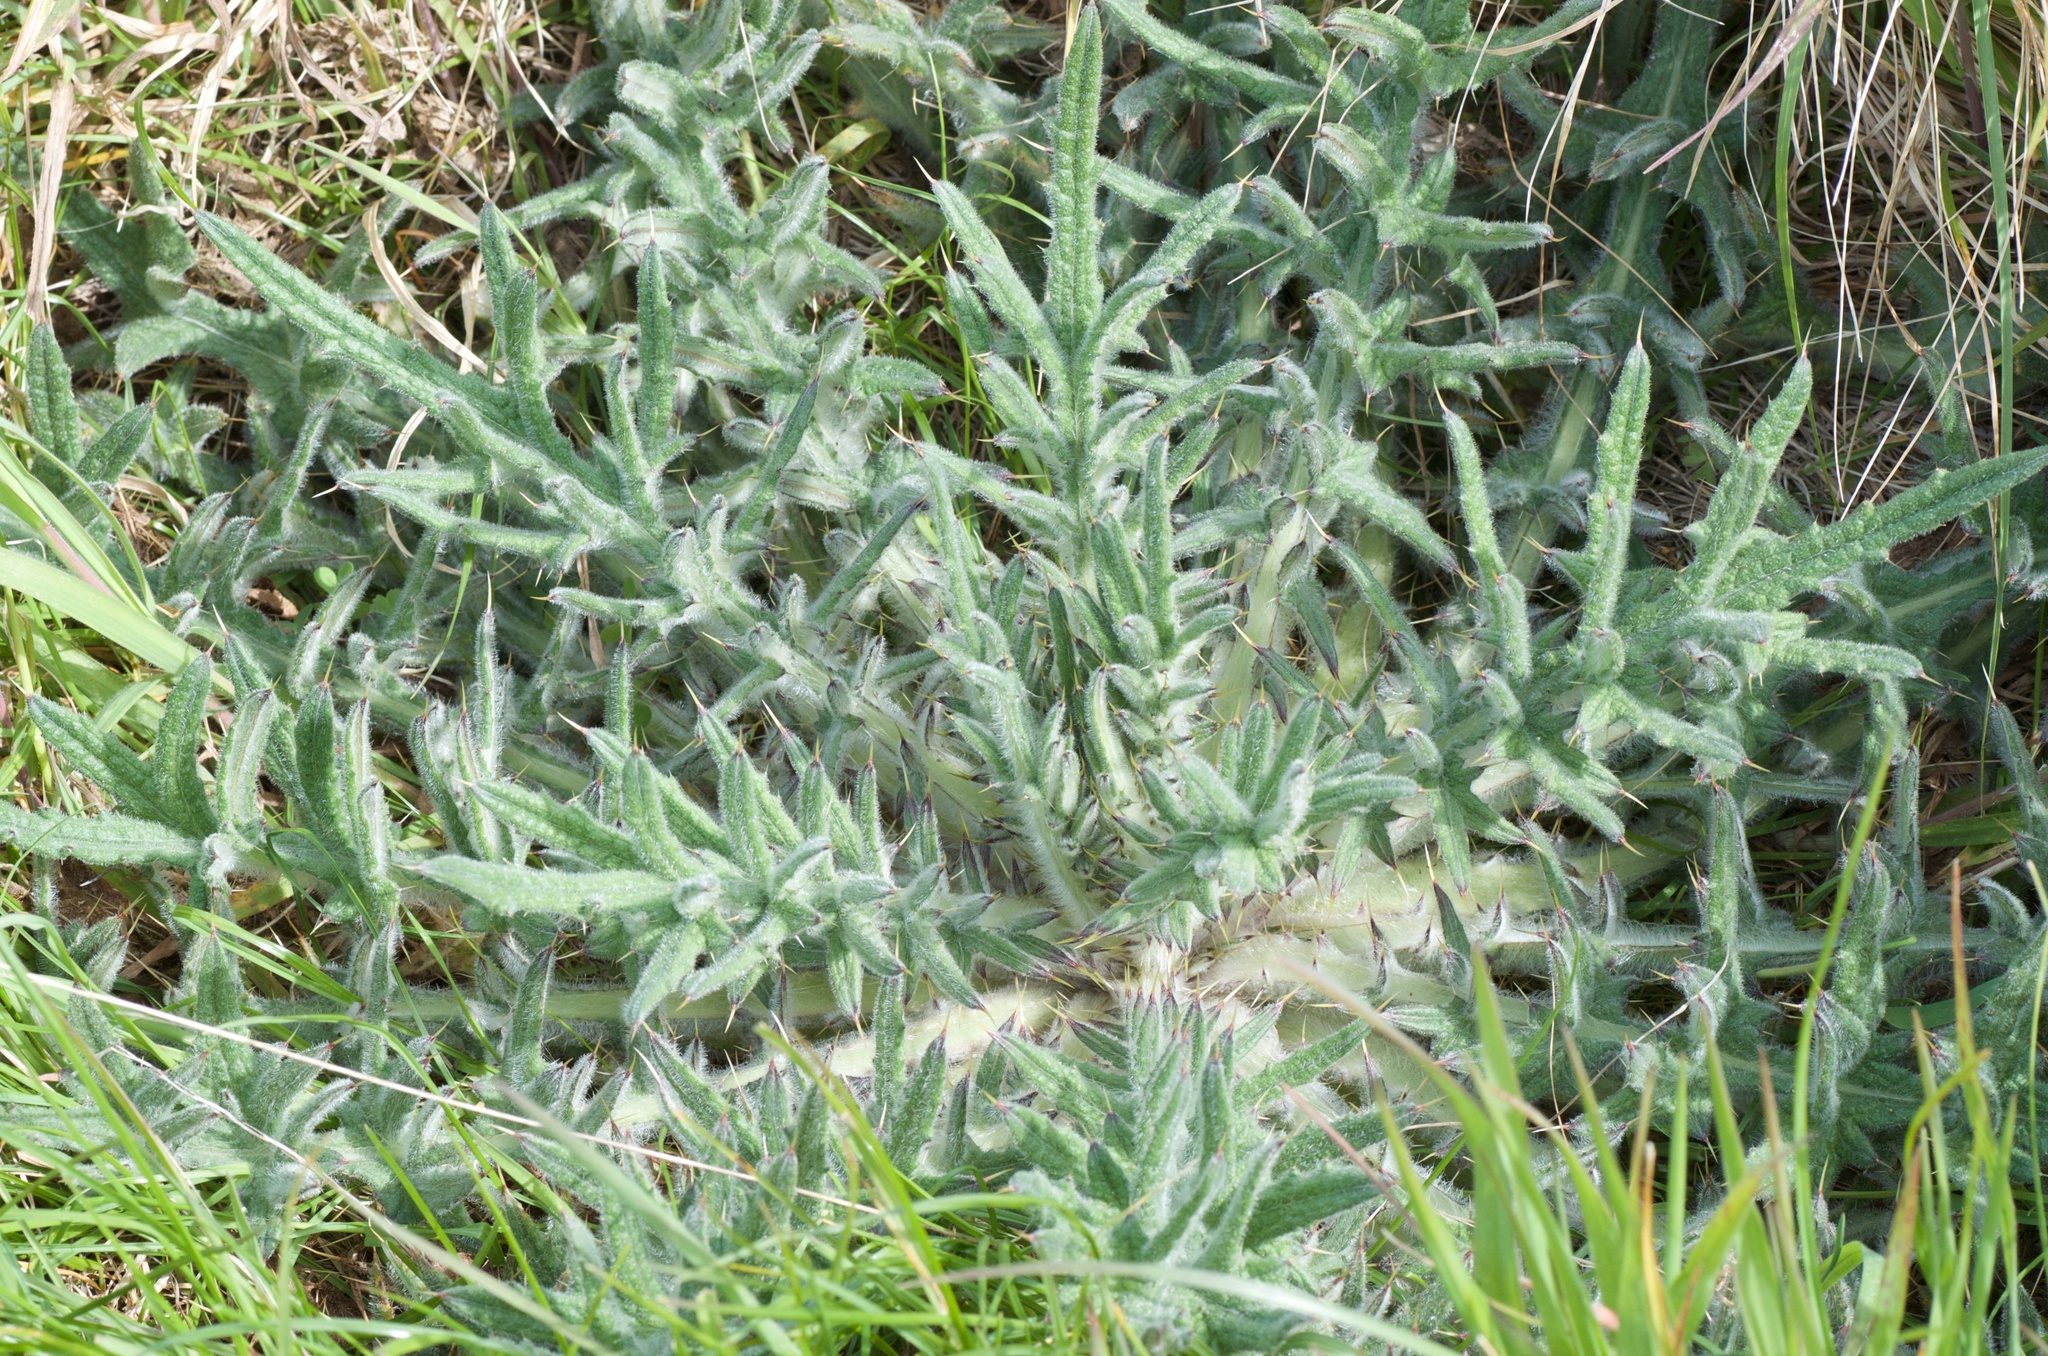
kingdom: Plantae
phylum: Tracheophyta
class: Magnoliopsida
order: Asterales
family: Asteraceae
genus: Cirsium
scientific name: Cirsium vulgare
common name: Bull thistle
